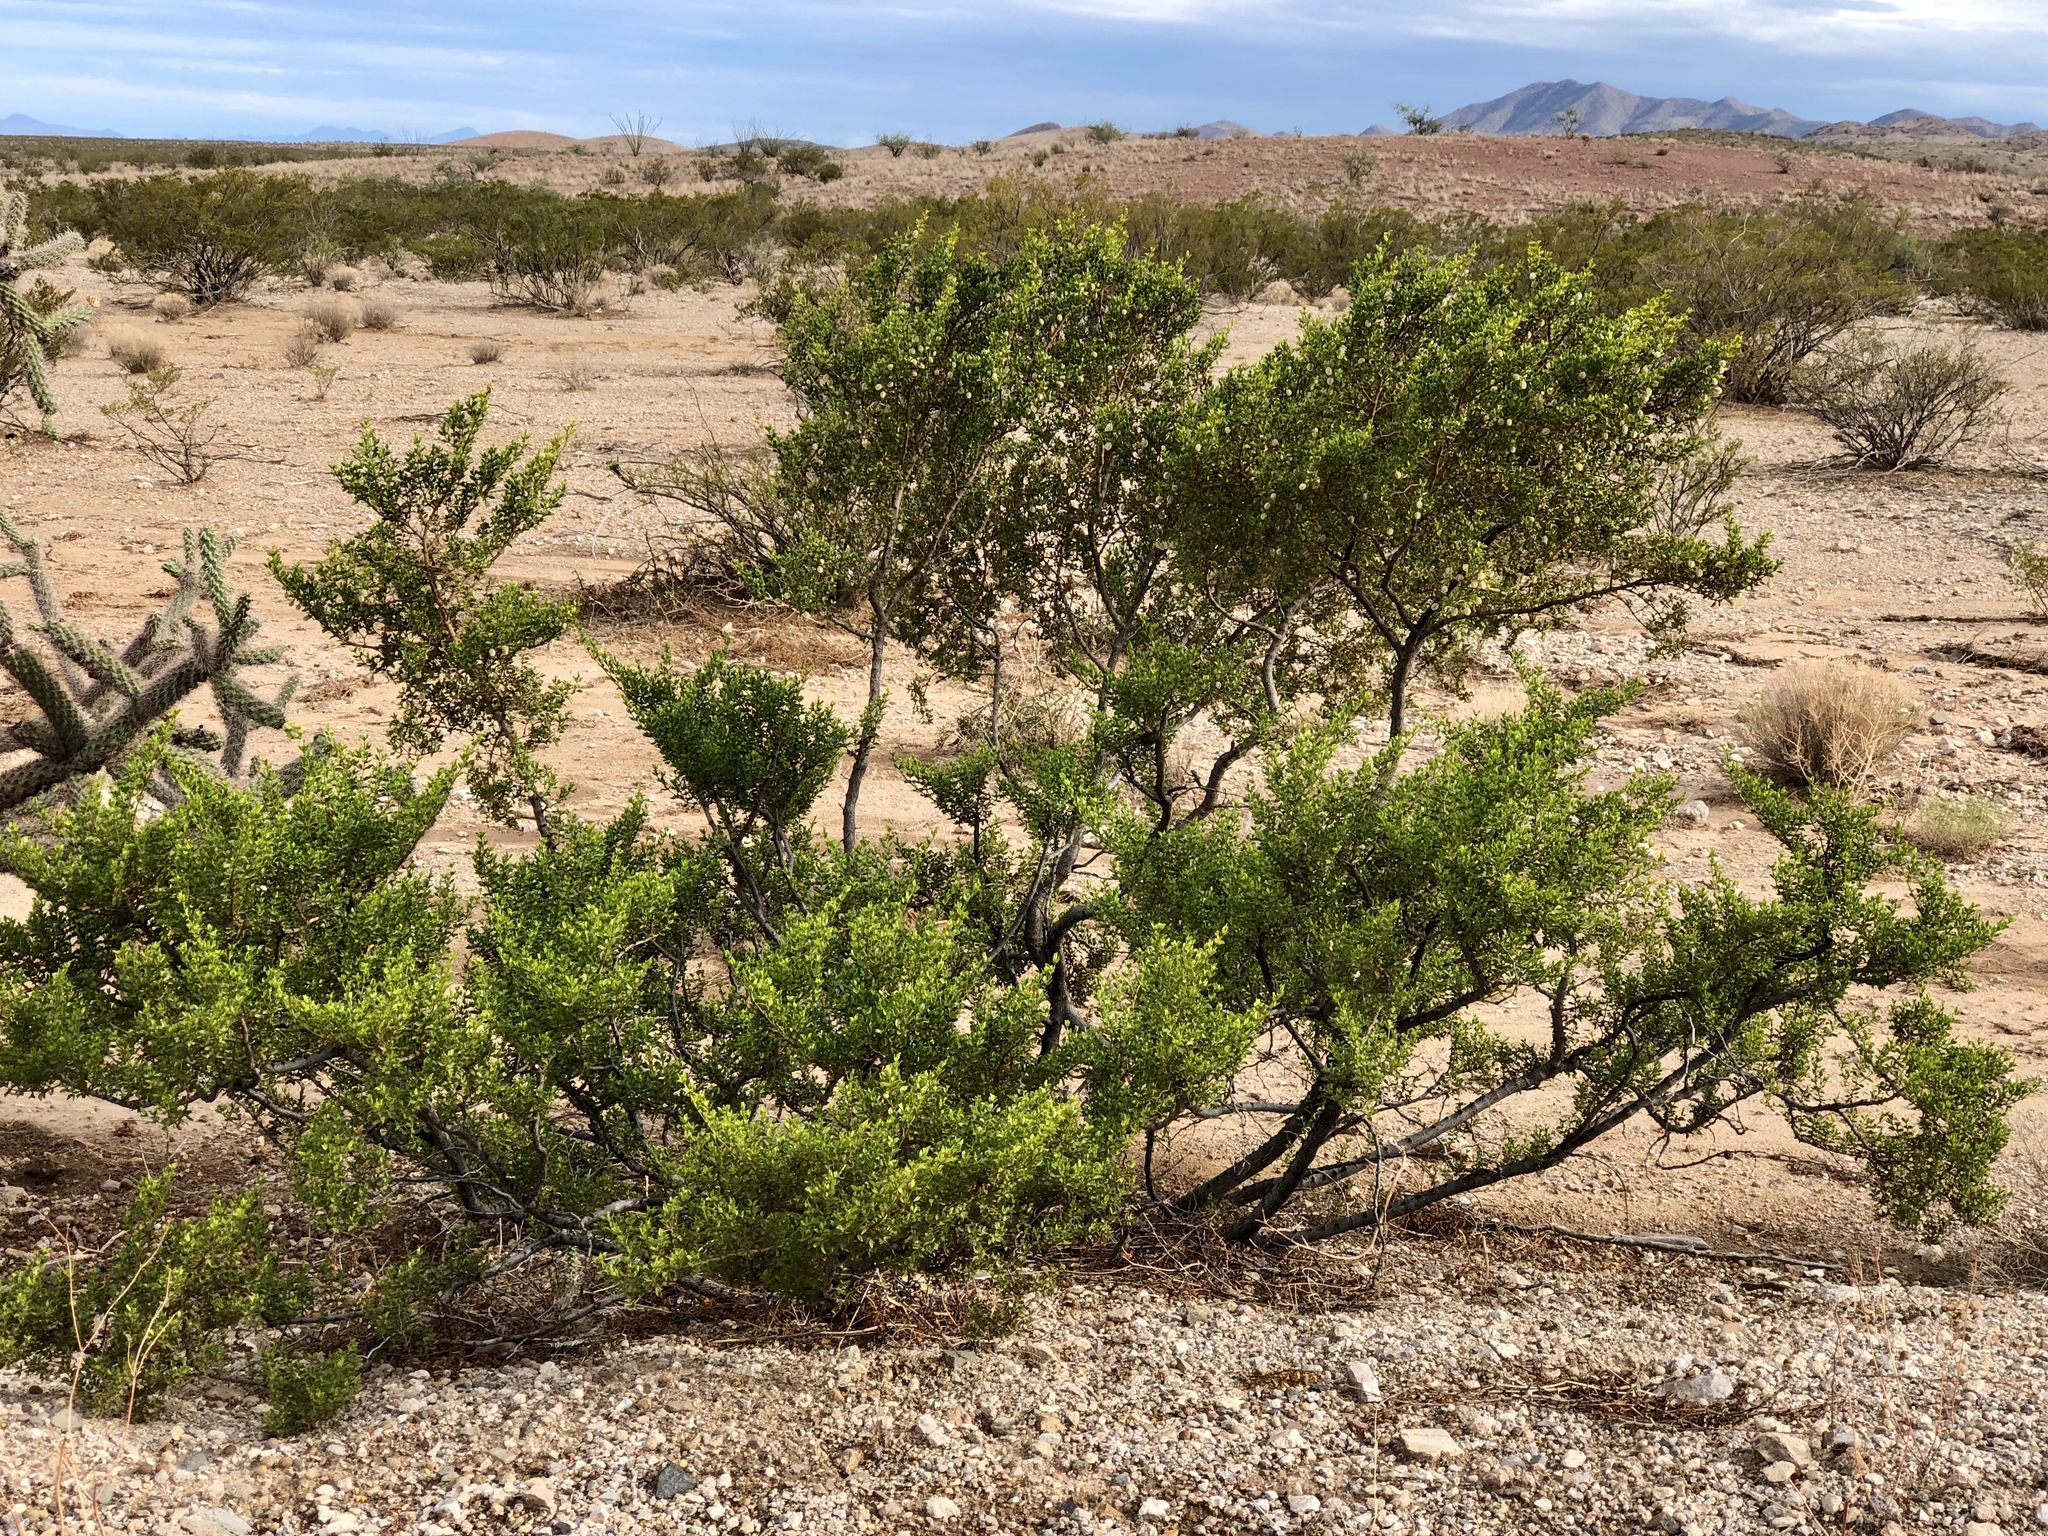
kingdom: Plantae
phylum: Tracheophyta
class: Magnoliopsida
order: Zygophyllales
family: Zygophyllaceae
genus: Larrea
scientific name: Larrea tridentata
